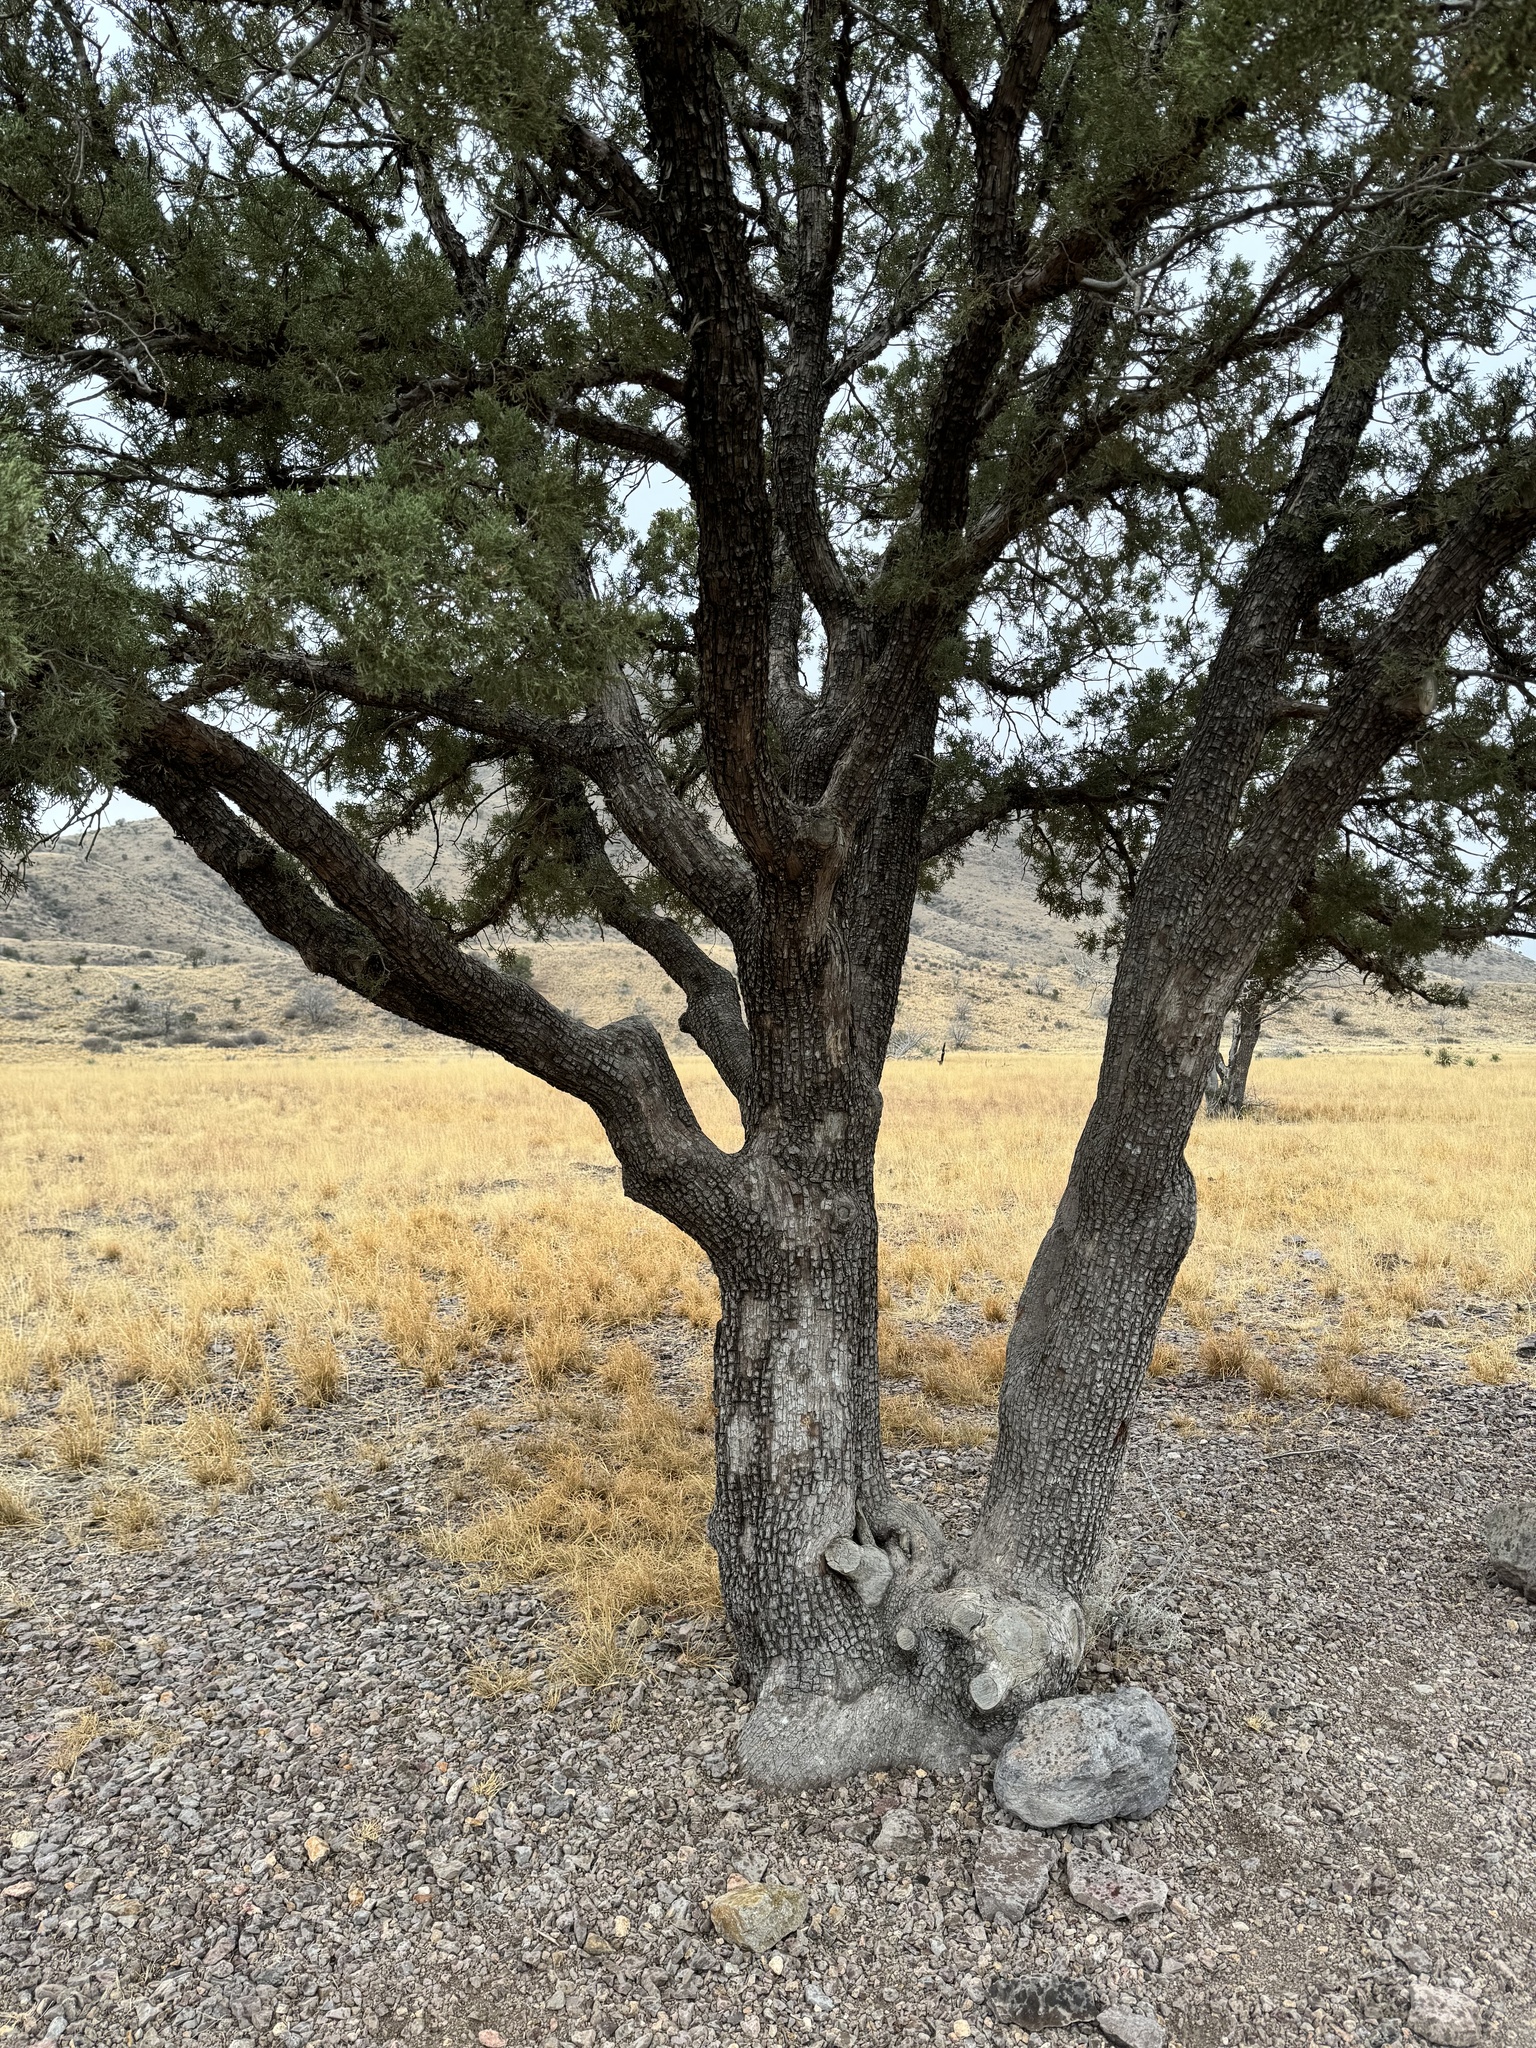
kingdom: Plantae
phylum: Tracheophyta
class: Pinopsida
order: Pinales
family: Cupressaceae
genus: Juniperus
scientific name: Juniperus deppeana
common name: Alligator juniper
